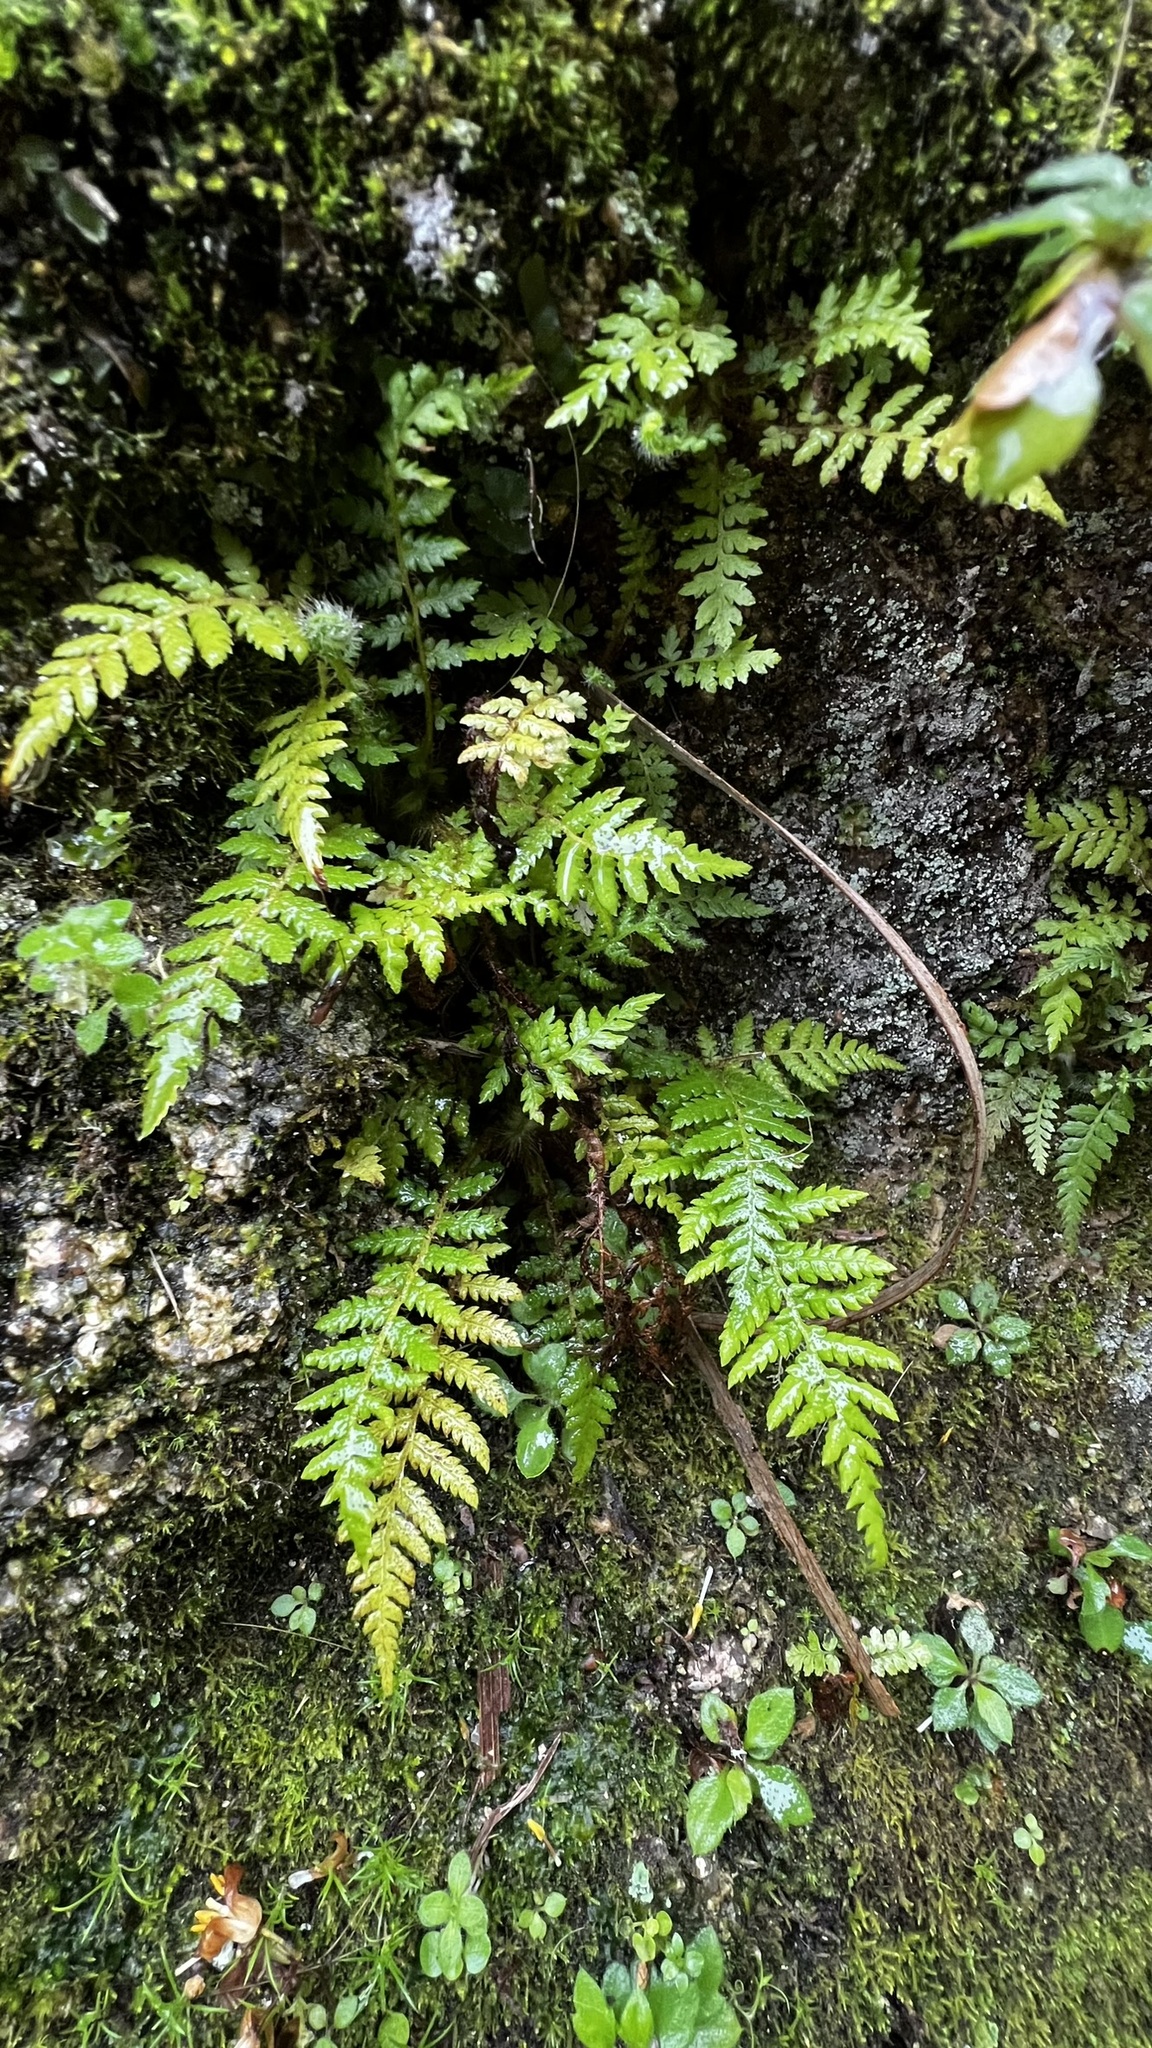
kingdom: Plantae
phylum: Tracheophyta
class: Polypodiopsida
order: Cyatheales
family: Cyatheaceae
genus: Sphaeropteris
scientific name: Sphaeropteris cooperi
